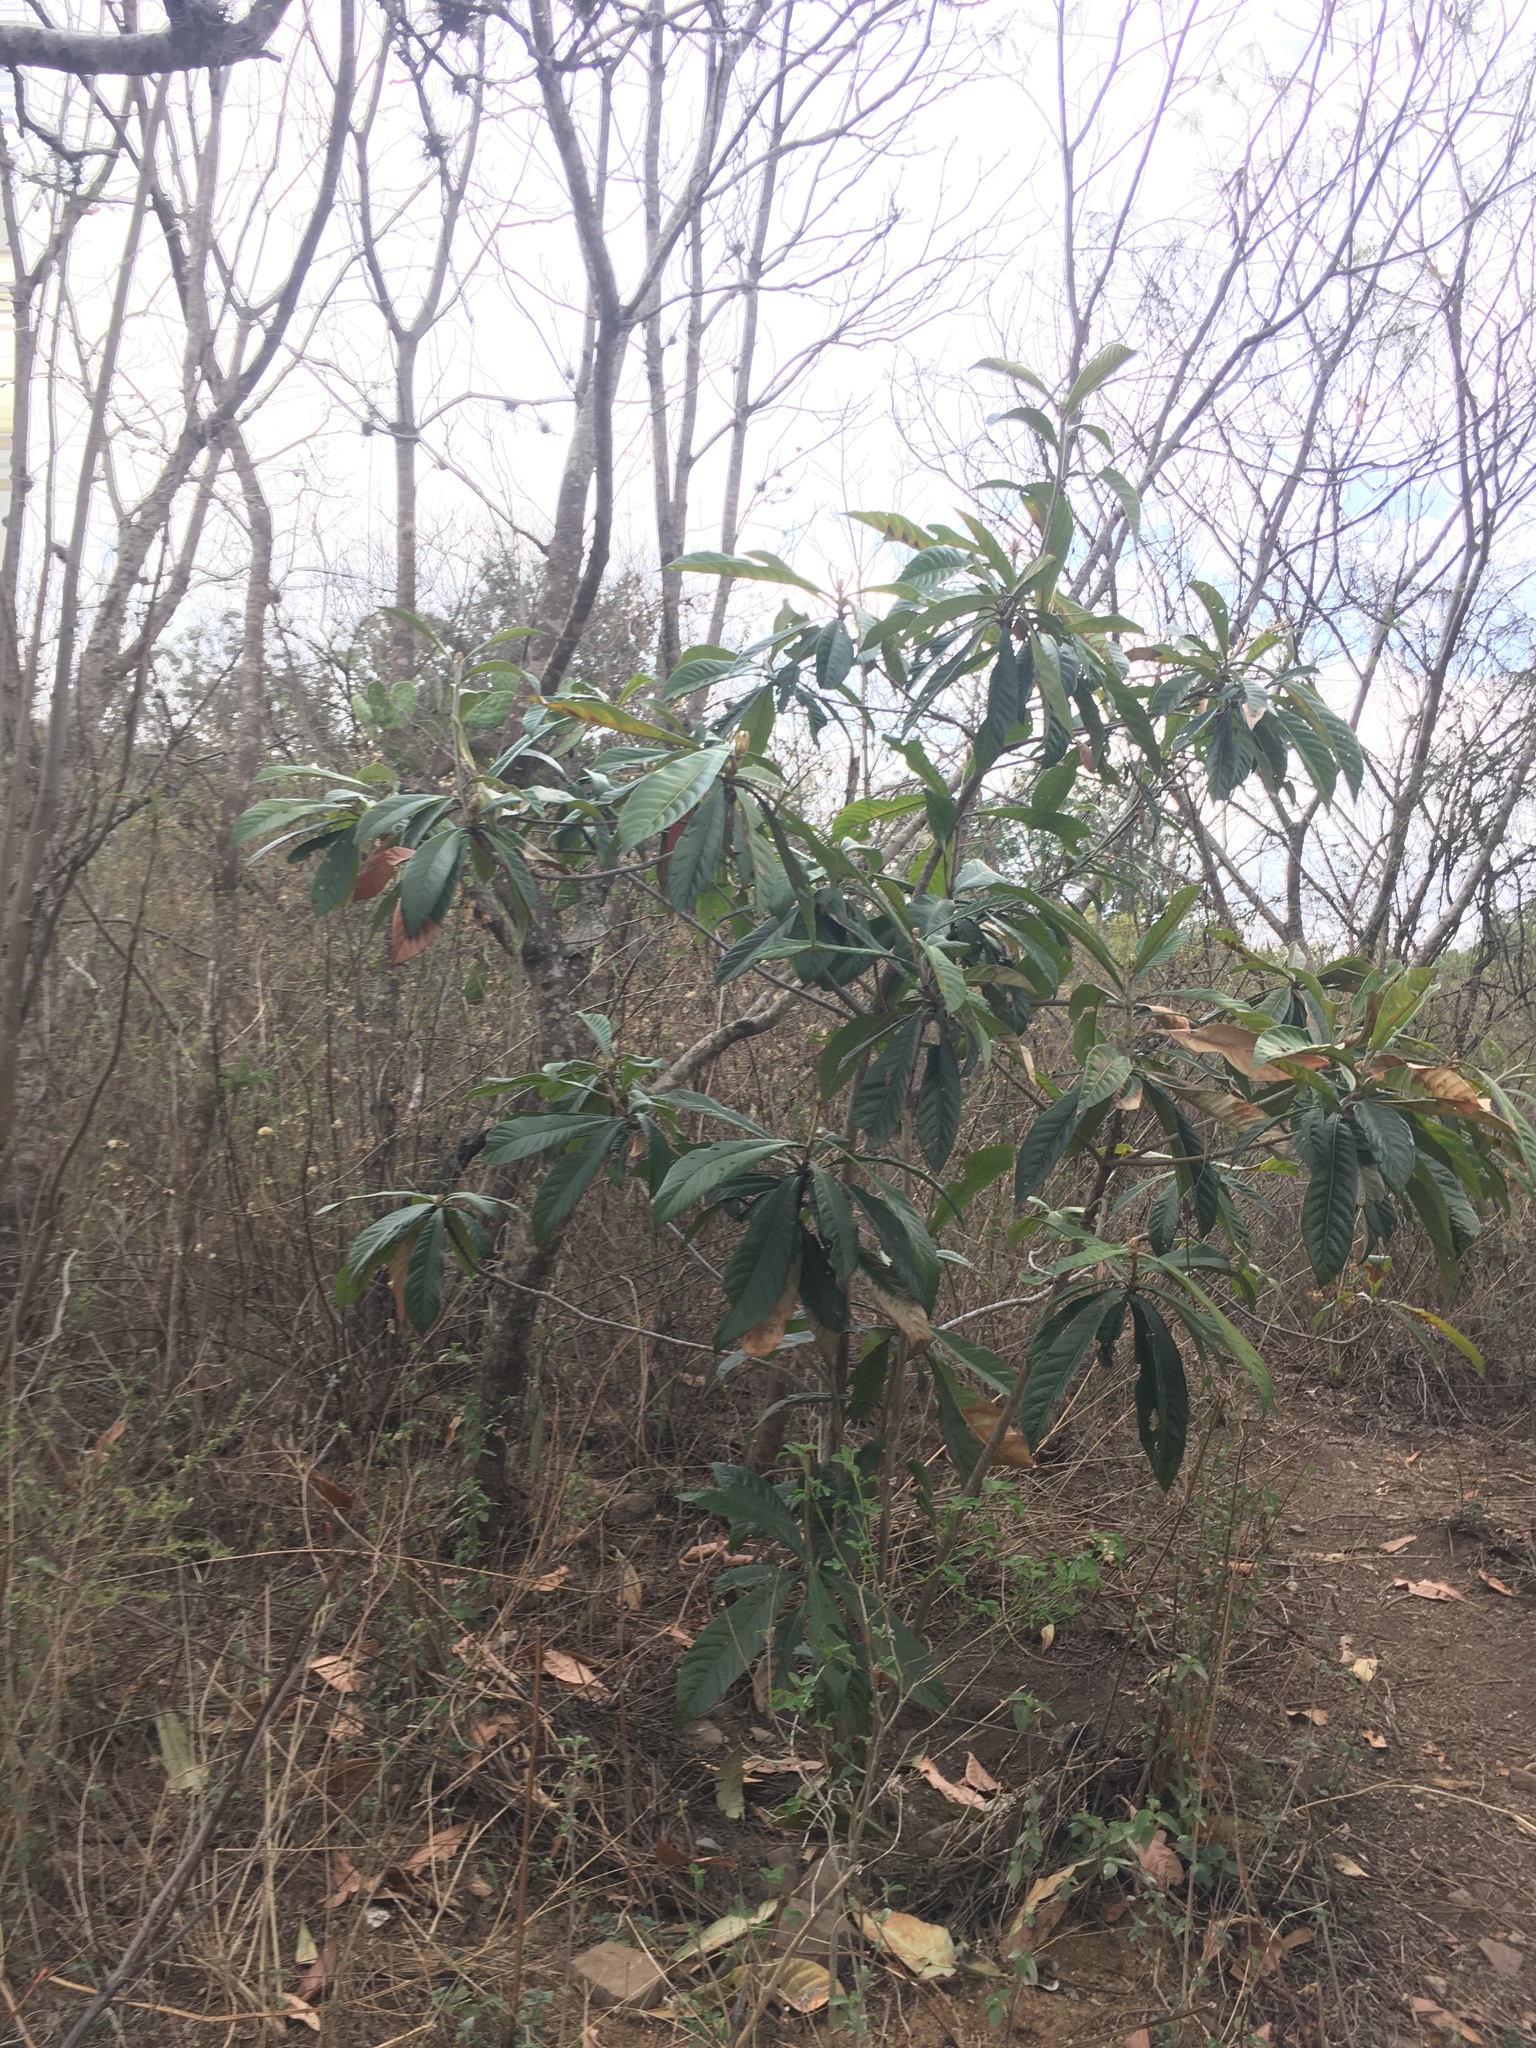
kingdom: Plantae
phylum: Tracheophyta
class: Magnoliopsida
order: Rosales
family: Rosaceae
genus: Rhaphiolepis
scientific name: Rhaphiolepis bibas
